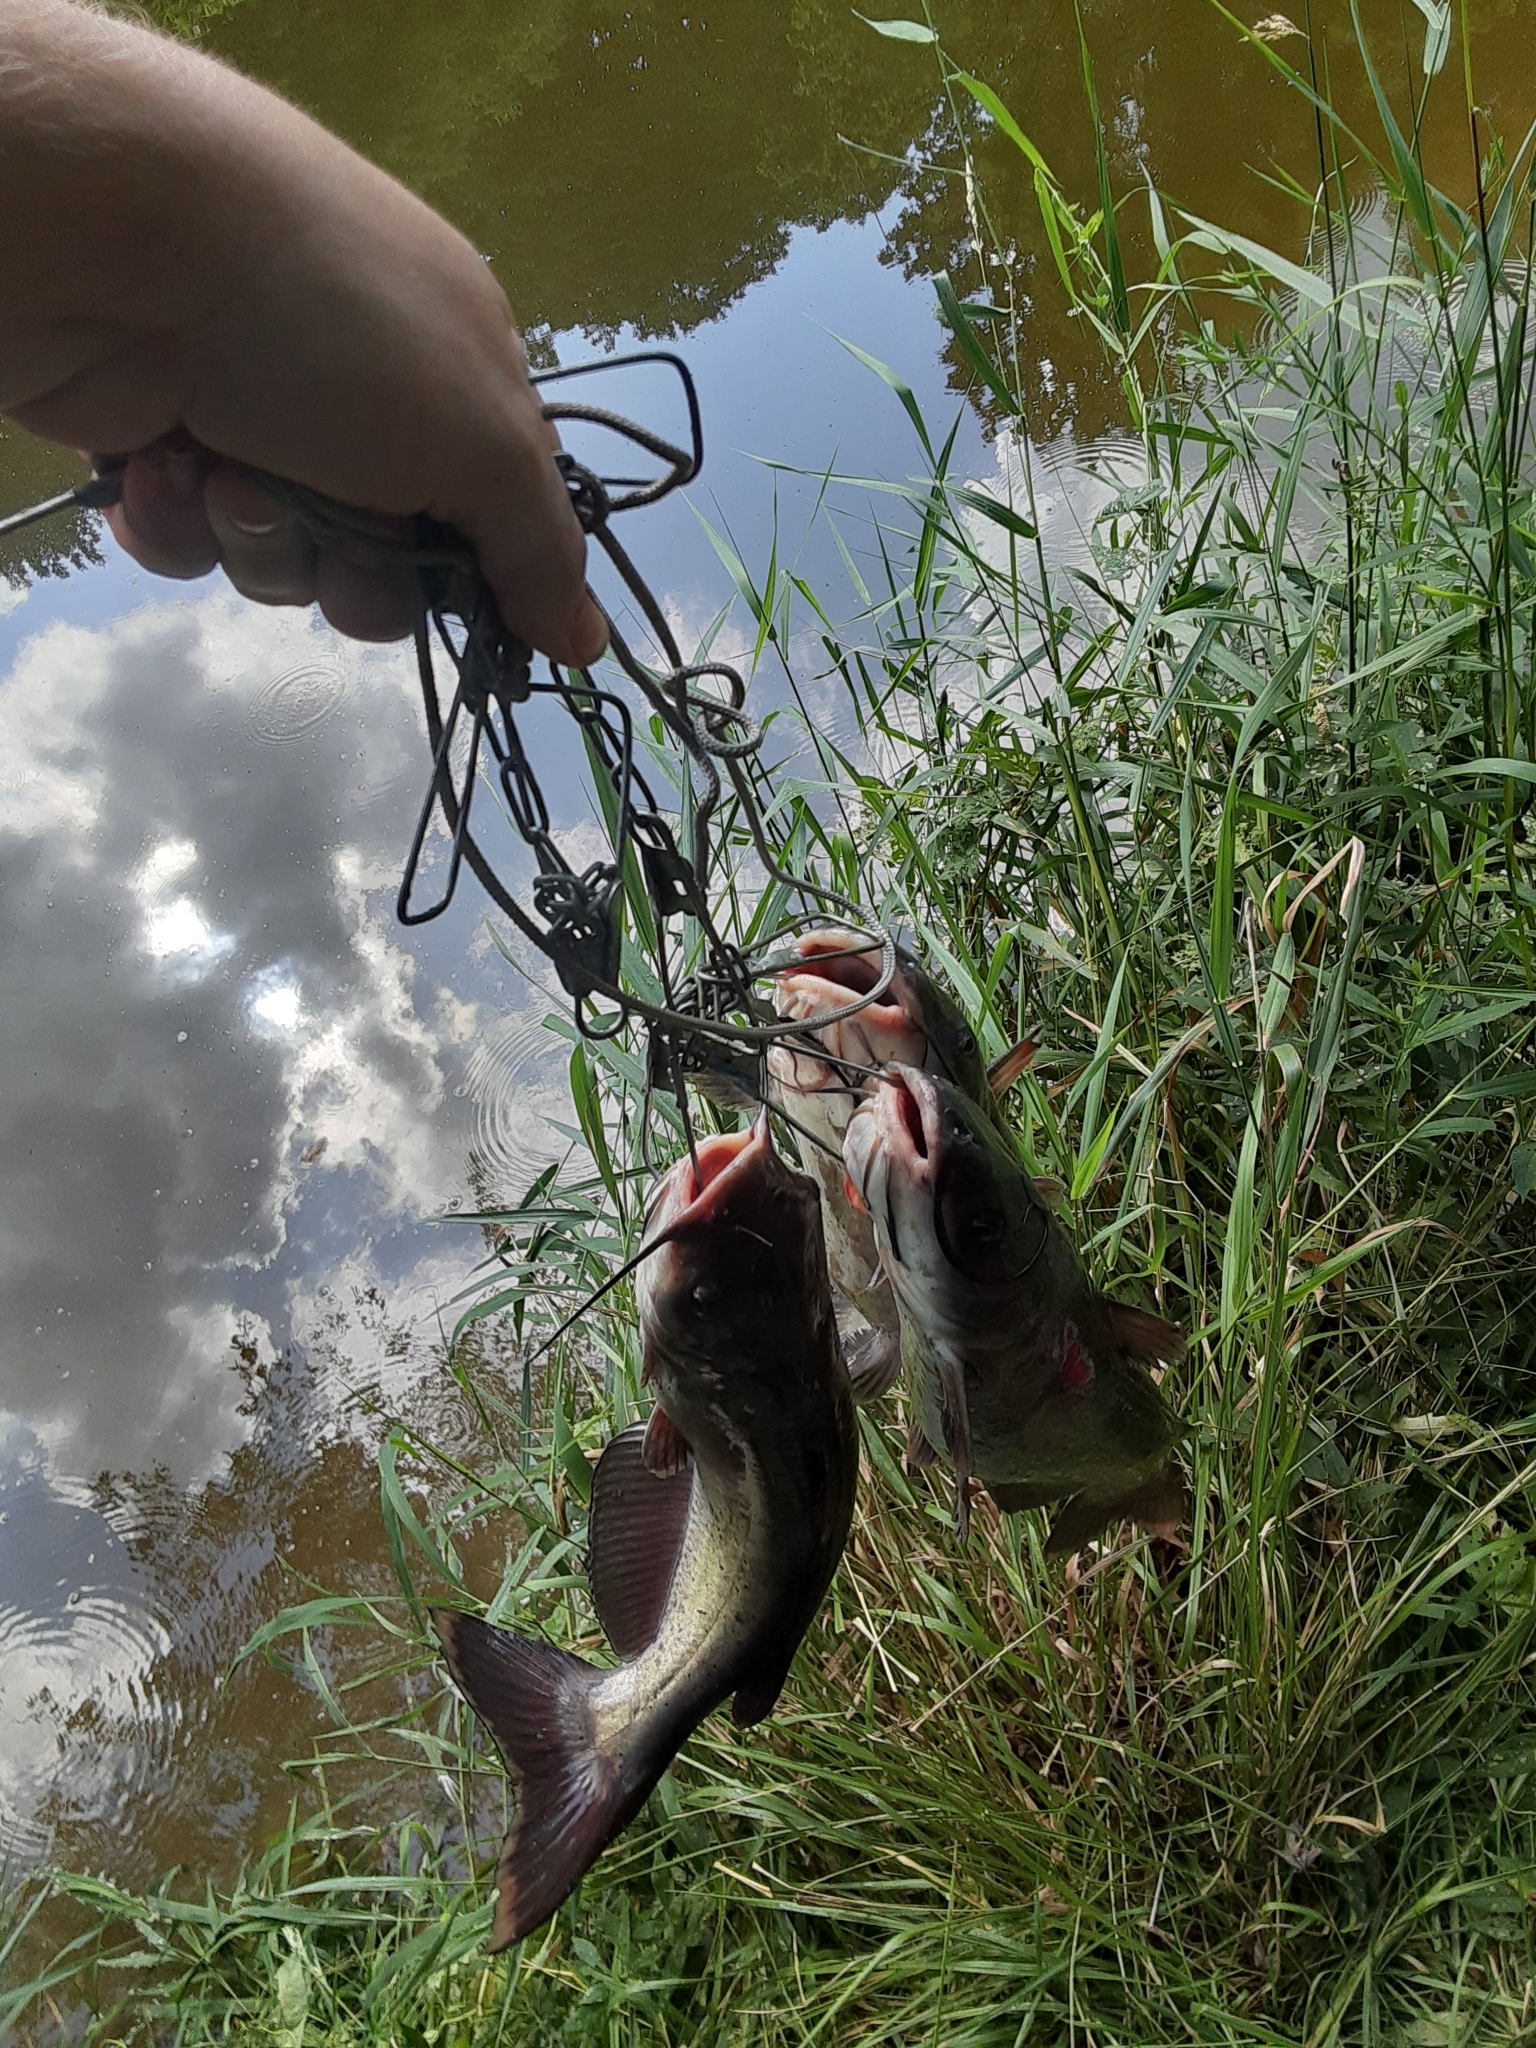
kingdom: Animalia
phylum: Chordata
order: Siluriformes
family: Ictaluridae
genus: Ictalurus
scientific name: Ictalurus punctatus
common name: Channel catfish
